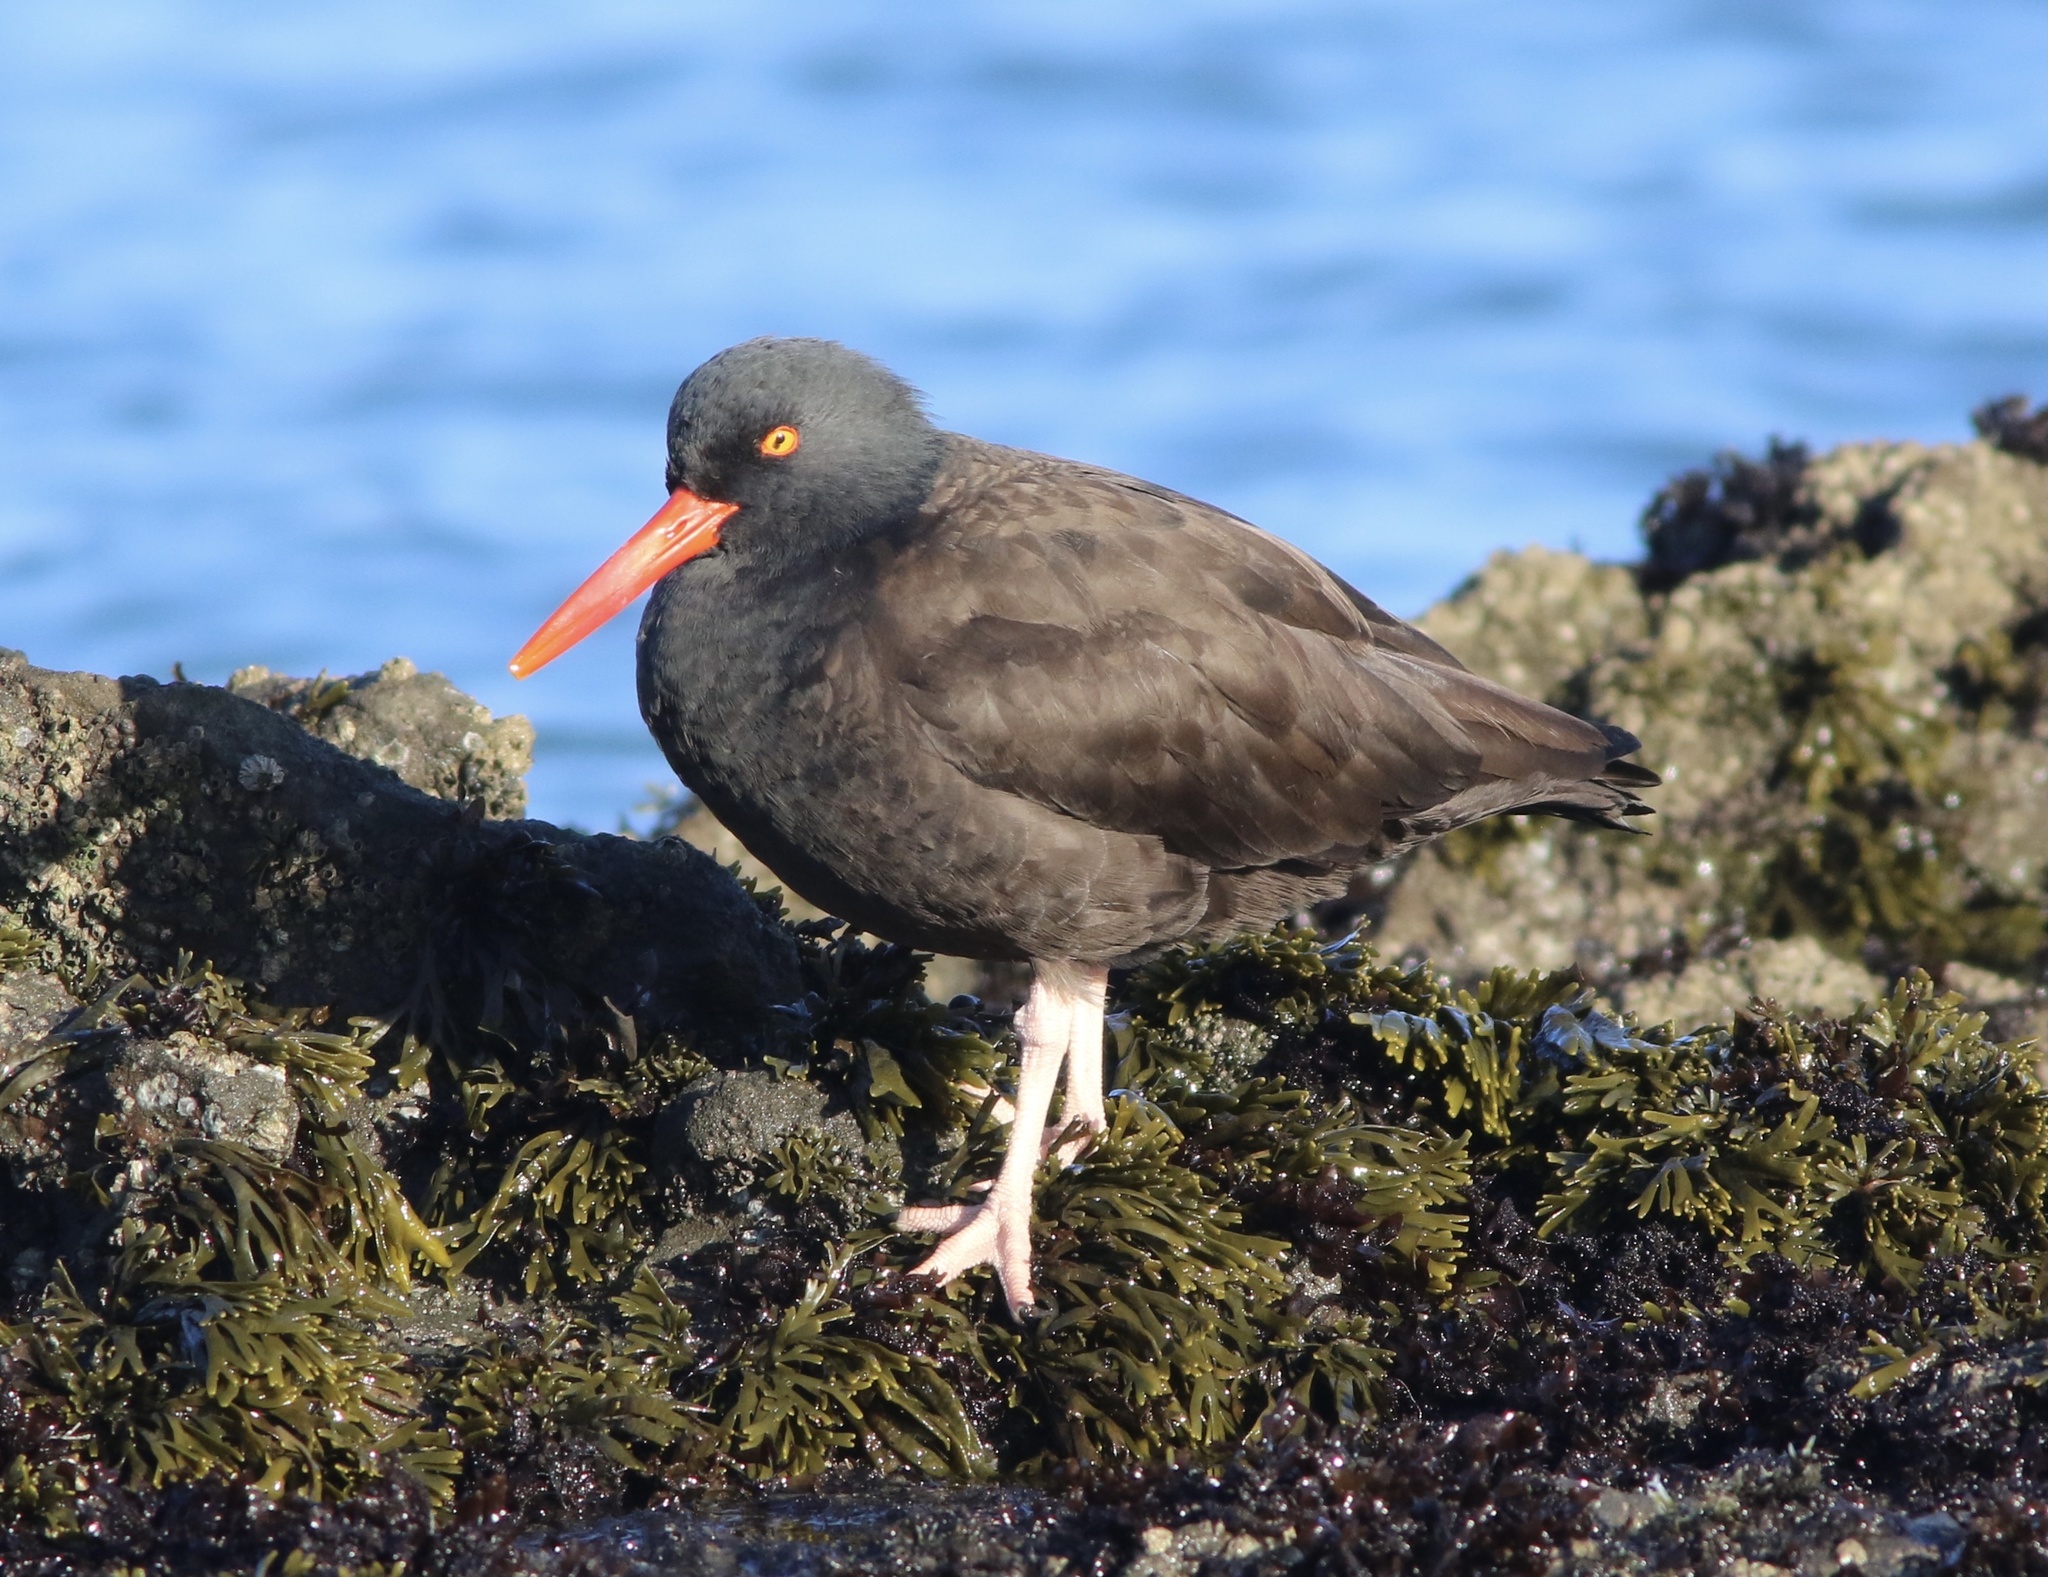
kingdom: Animalia
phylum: Chordata
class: Aves
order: Charadriiformes
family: Haematopodidae
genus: Haematopus
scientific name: Haematopus bachmani
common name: Black oystercatcher
